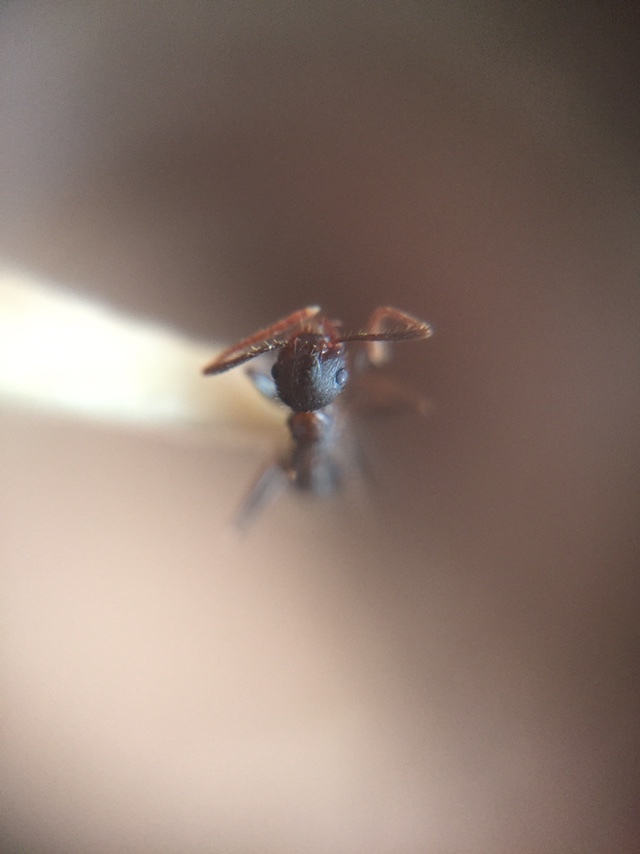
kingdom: Animalia
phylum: Arthropoda
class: Insecta
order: Hymenoptera
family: Formicidae
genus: Pheidole
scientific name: Pheidole spathifera
